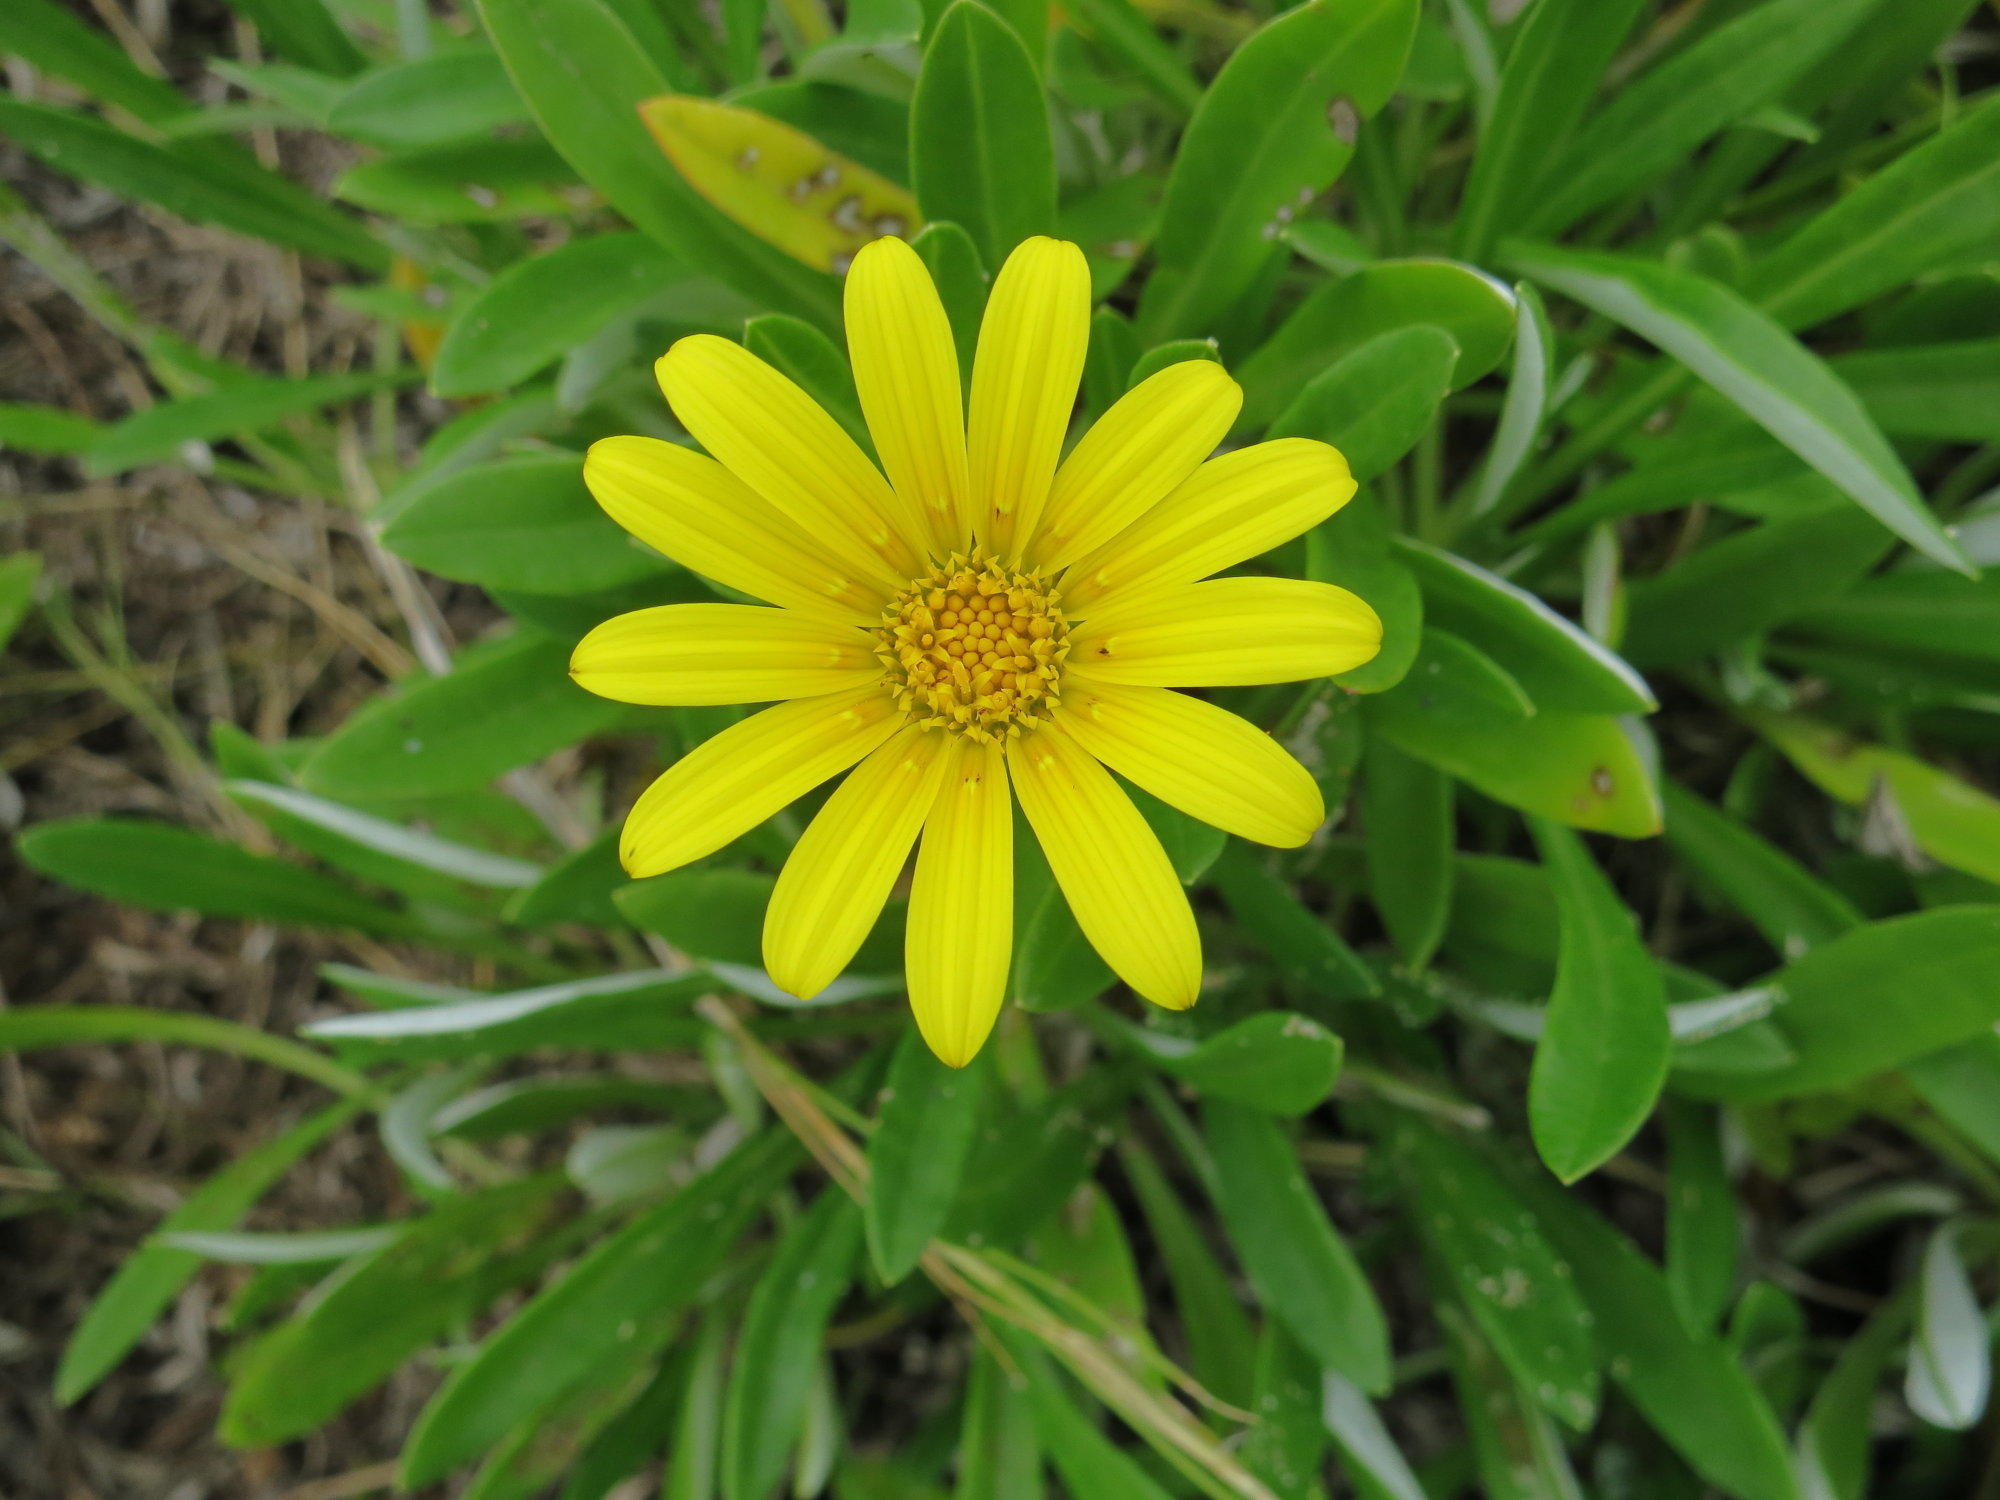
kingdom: Plantae
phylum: Tracheophyta
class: Magnoliopsida
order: Asterales
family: Asteraceae
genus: Gazania
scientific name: Gazania rigens
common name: Treasureflower
